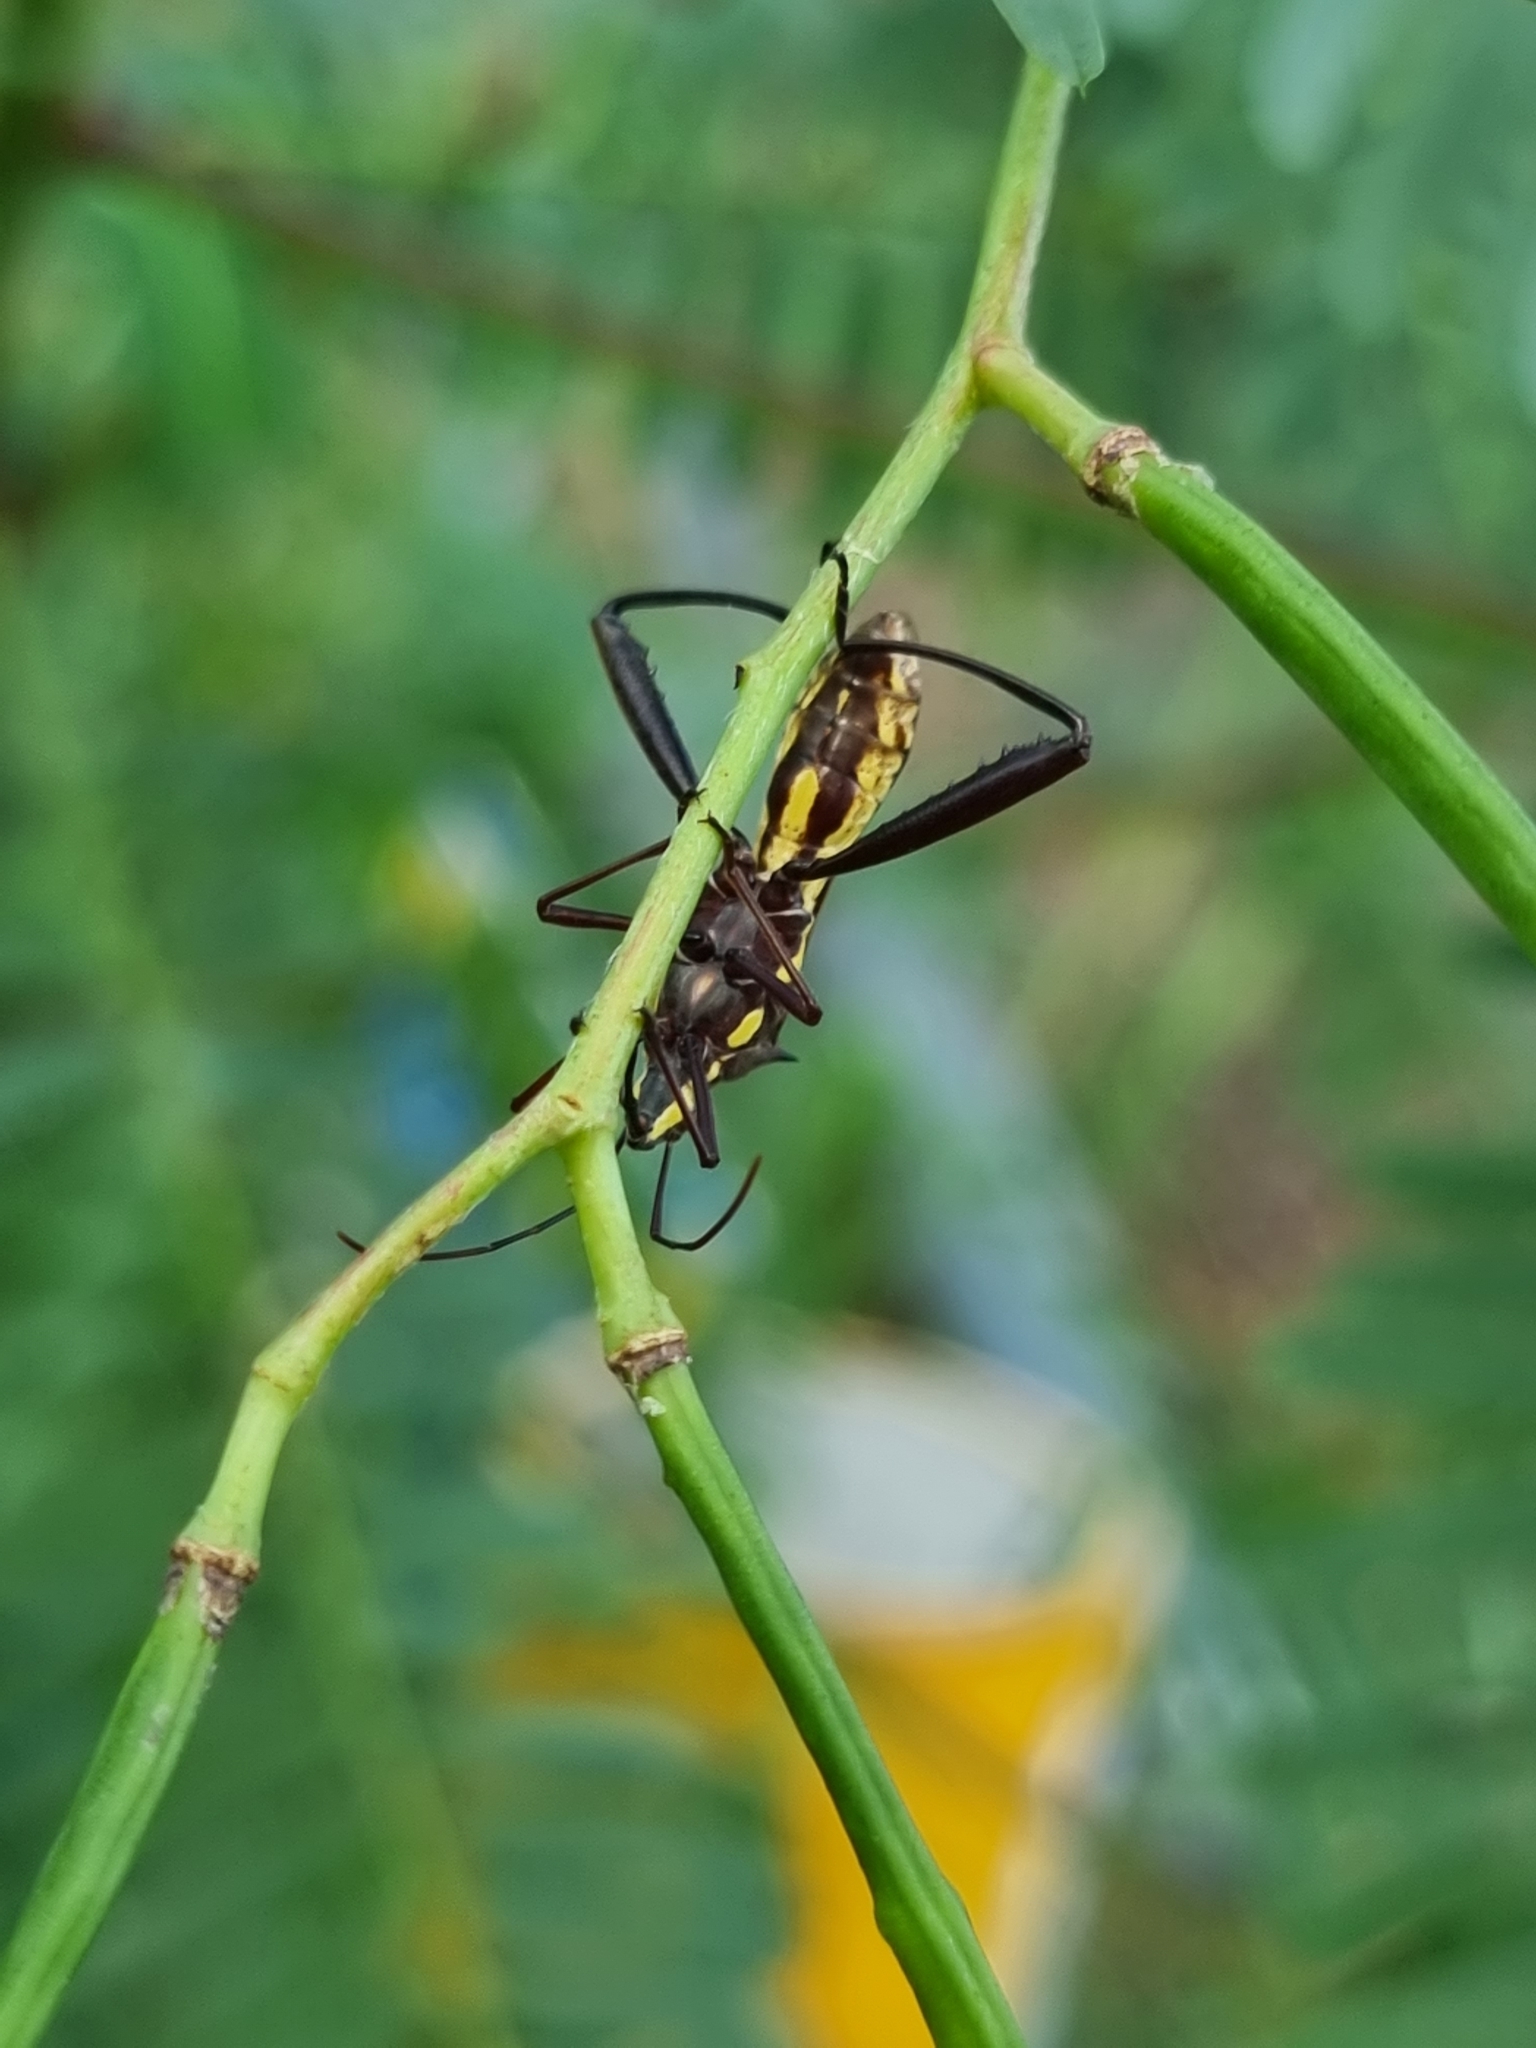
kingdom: Animalia
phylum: Arthropoda
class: Insecta
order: Hemiptera
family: Alydidae
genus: Riptortus
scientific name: Riptortus serripes
